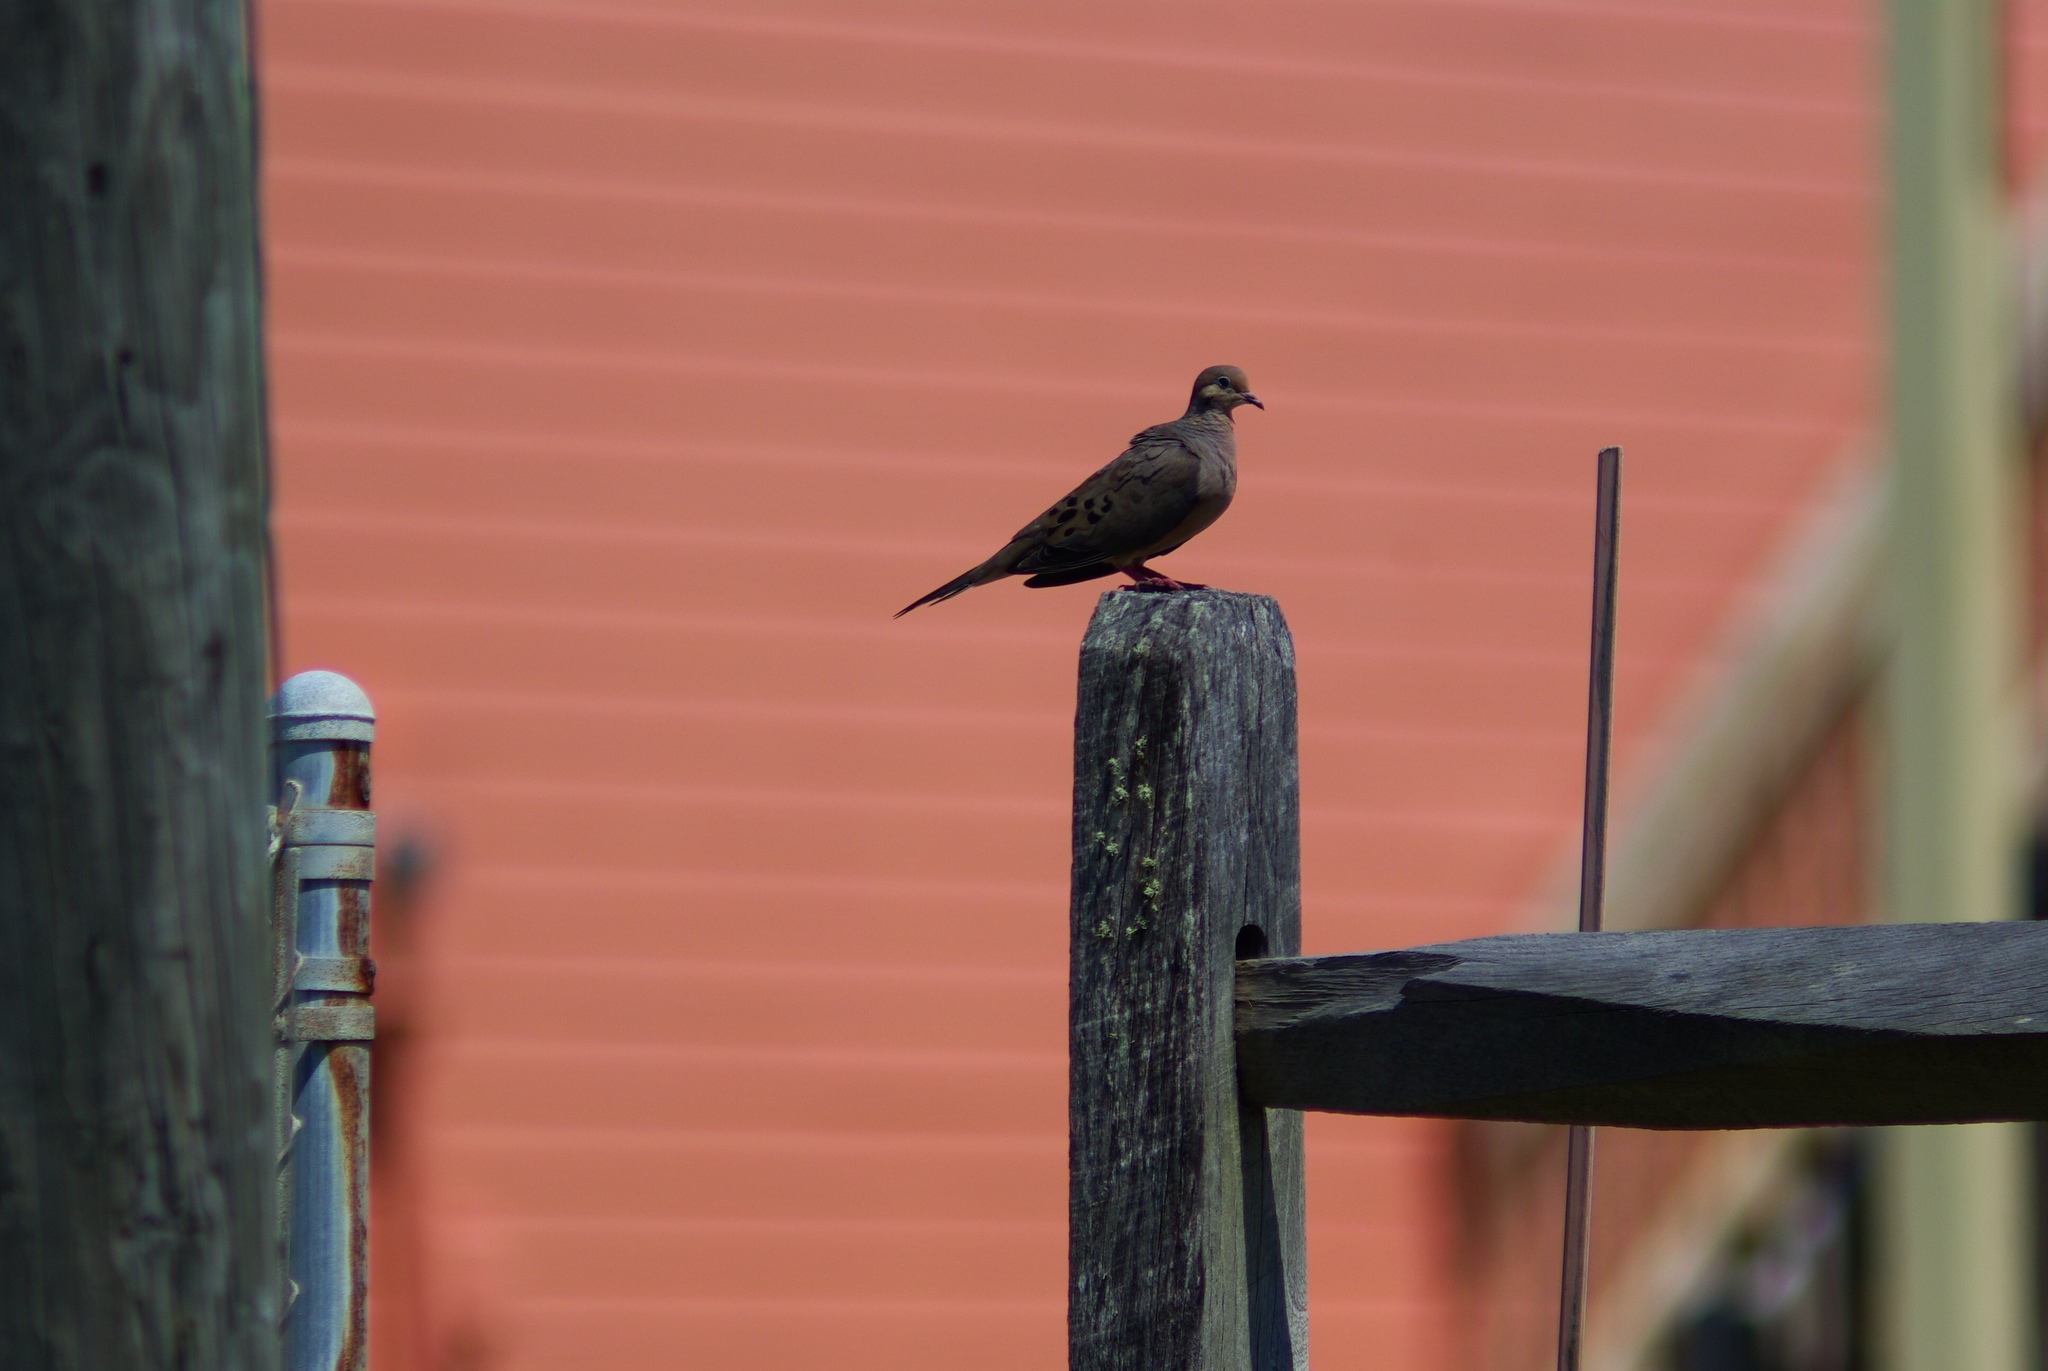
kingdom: Animalia
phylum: Chordata
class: Aves
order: Columbiformes
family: Columbidae
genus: Zenaida
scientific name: Zenaida macroura
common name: Mourning dove
